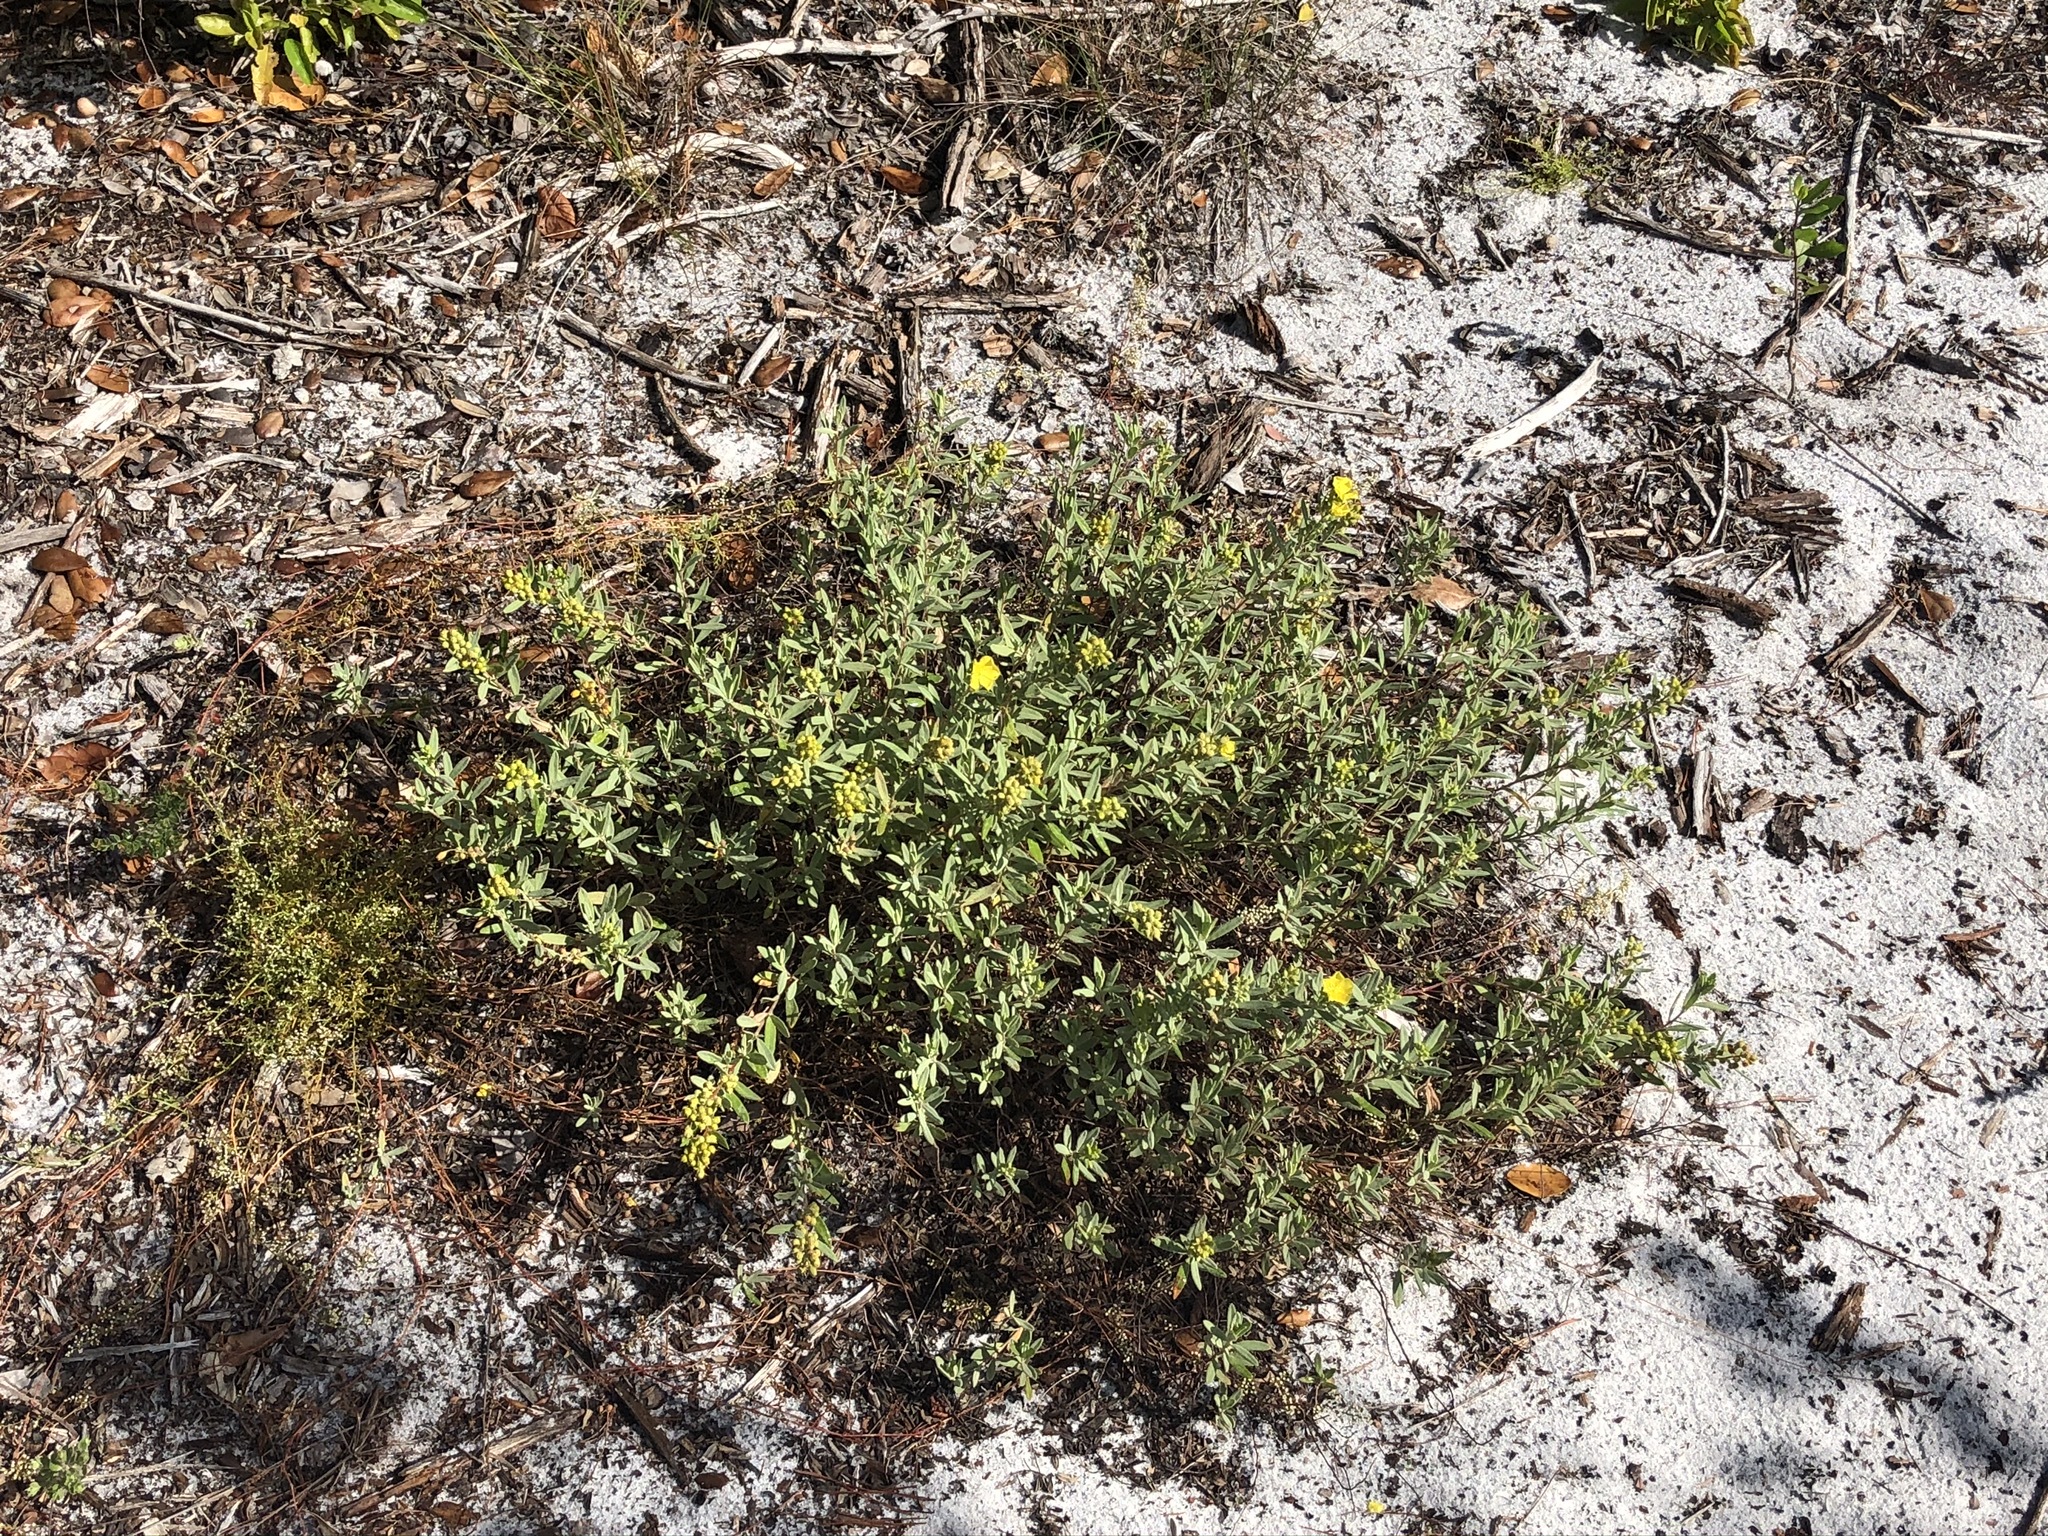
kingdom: Plantae
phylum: Tracheophyta
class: Magnoliopsida
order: Malvales
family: Cistaceae
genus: Crocanthemum
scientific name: Crocanthemum nashii
